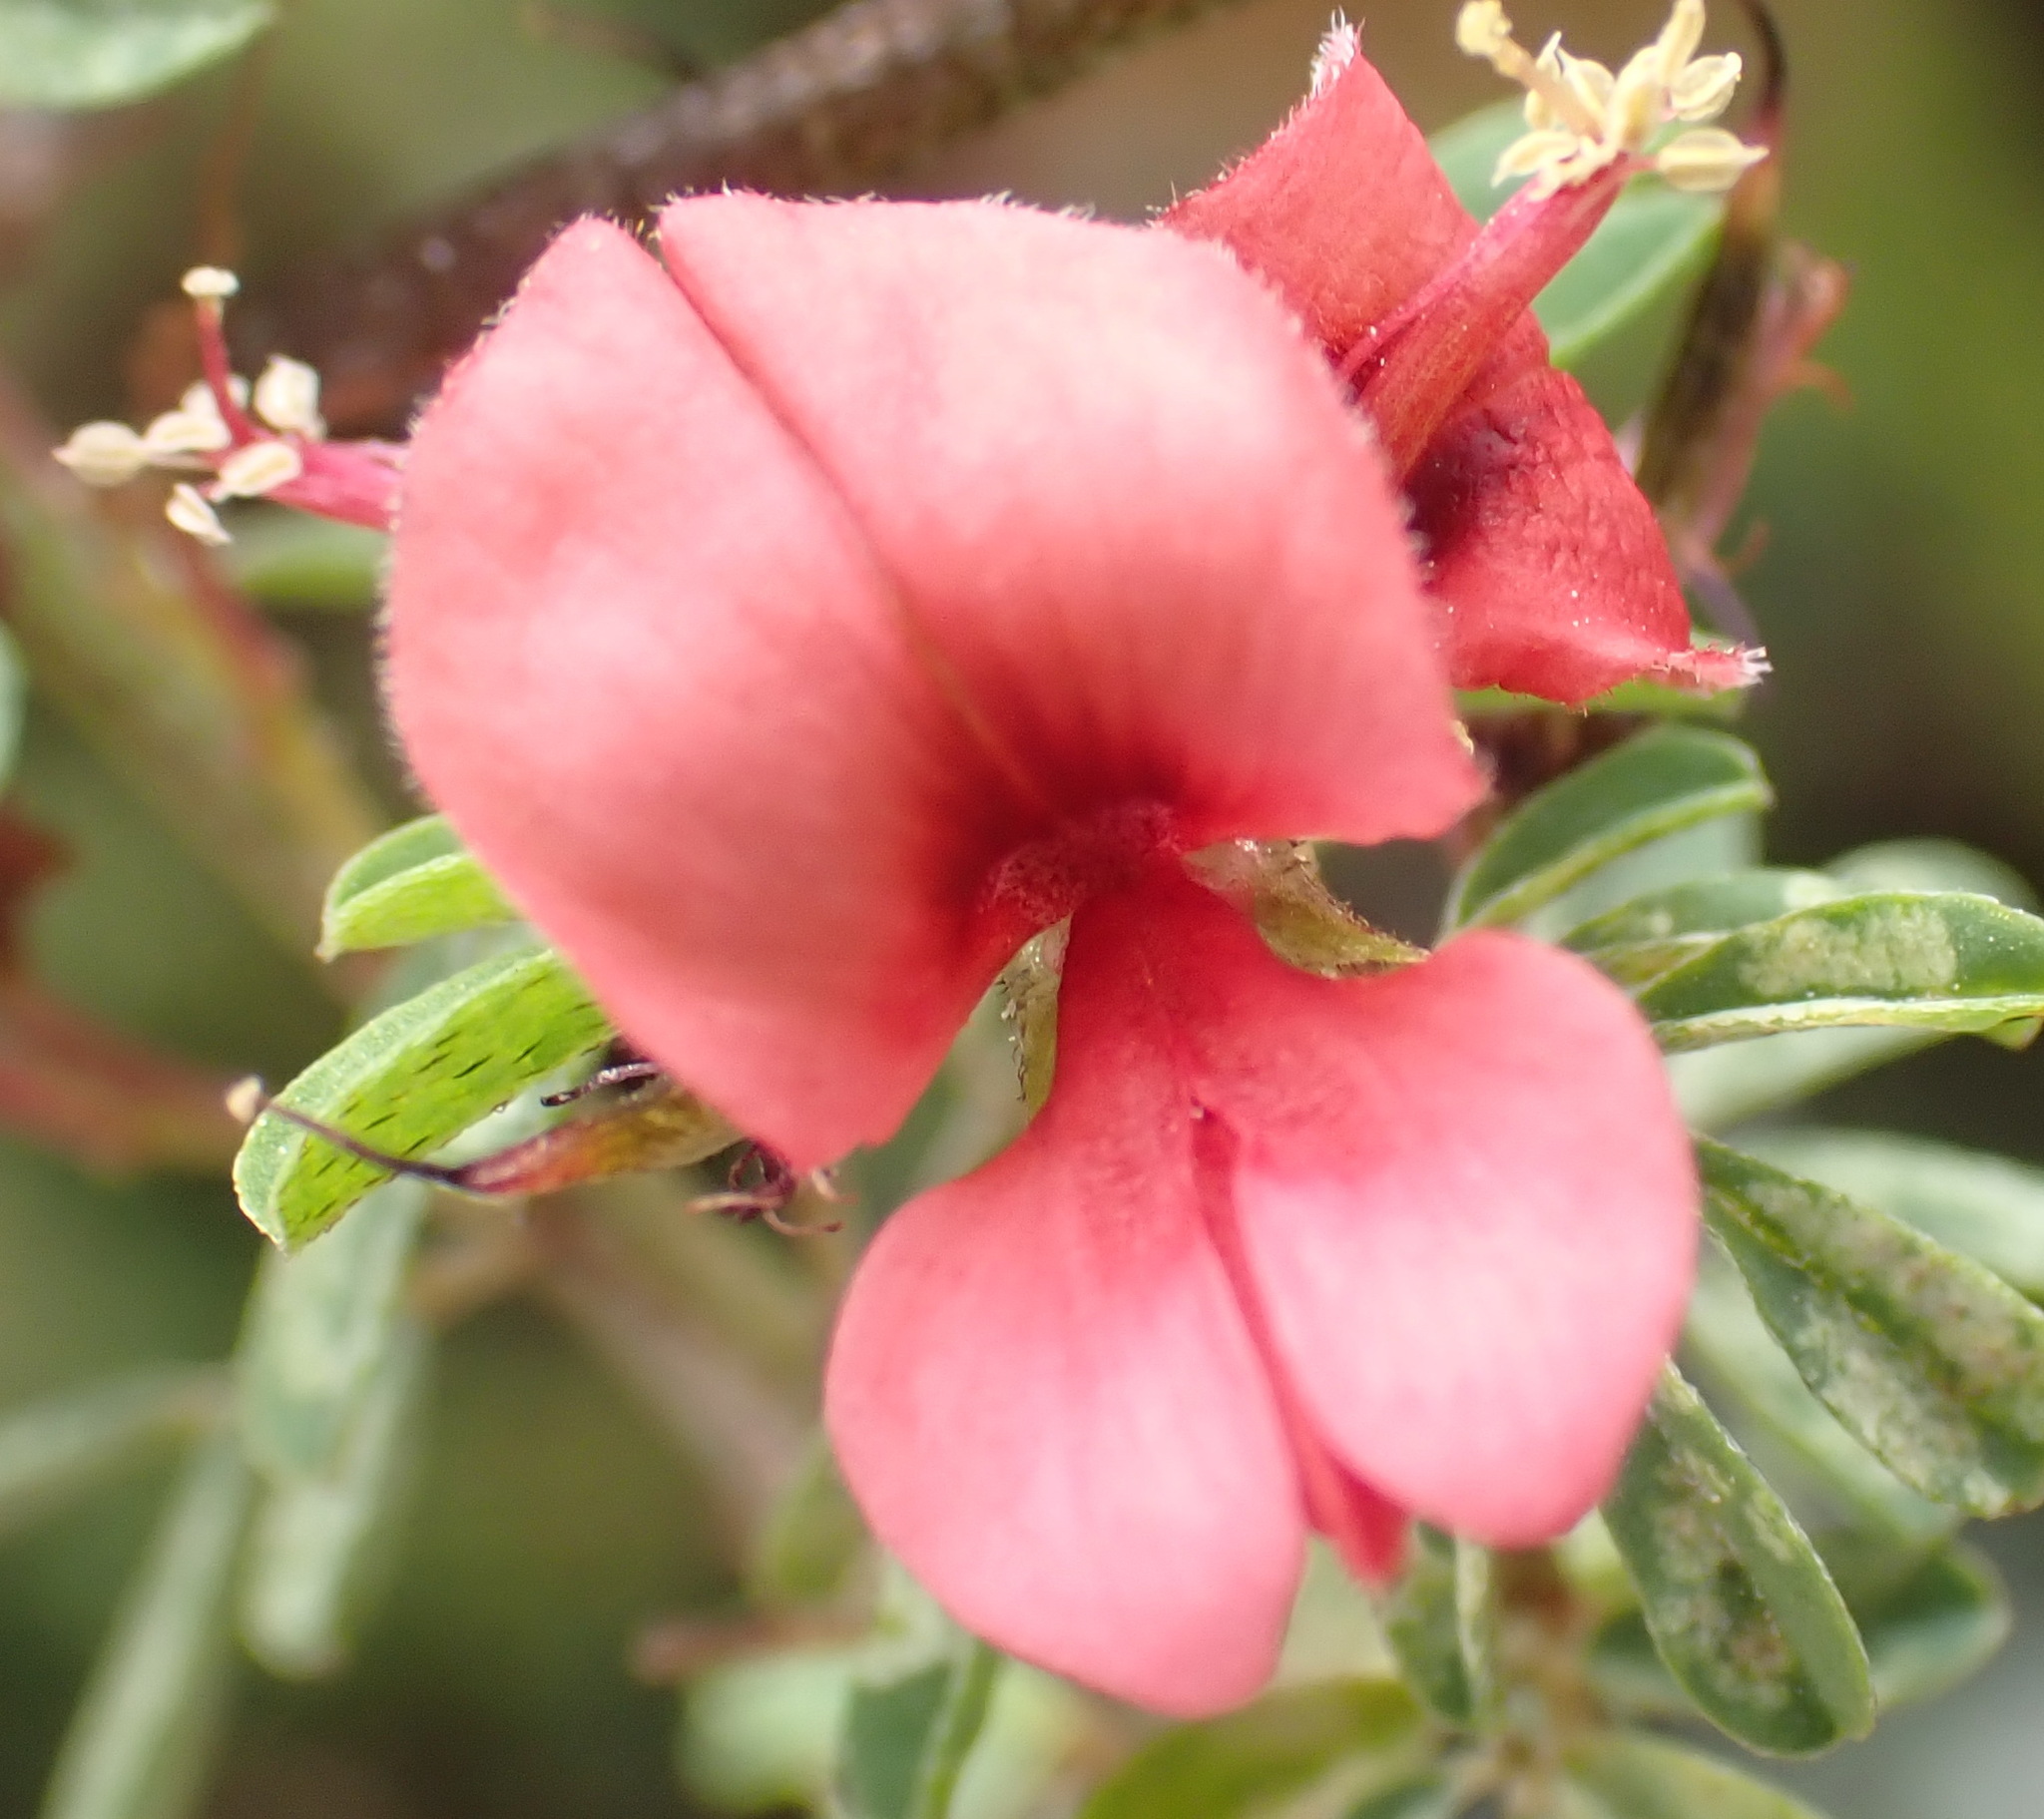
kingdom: Plantae
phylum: Tracheophyta
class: Magnoliopsida
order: Fabales
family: Fabaceae
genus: Indigofera
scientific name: Indigofera stricta
